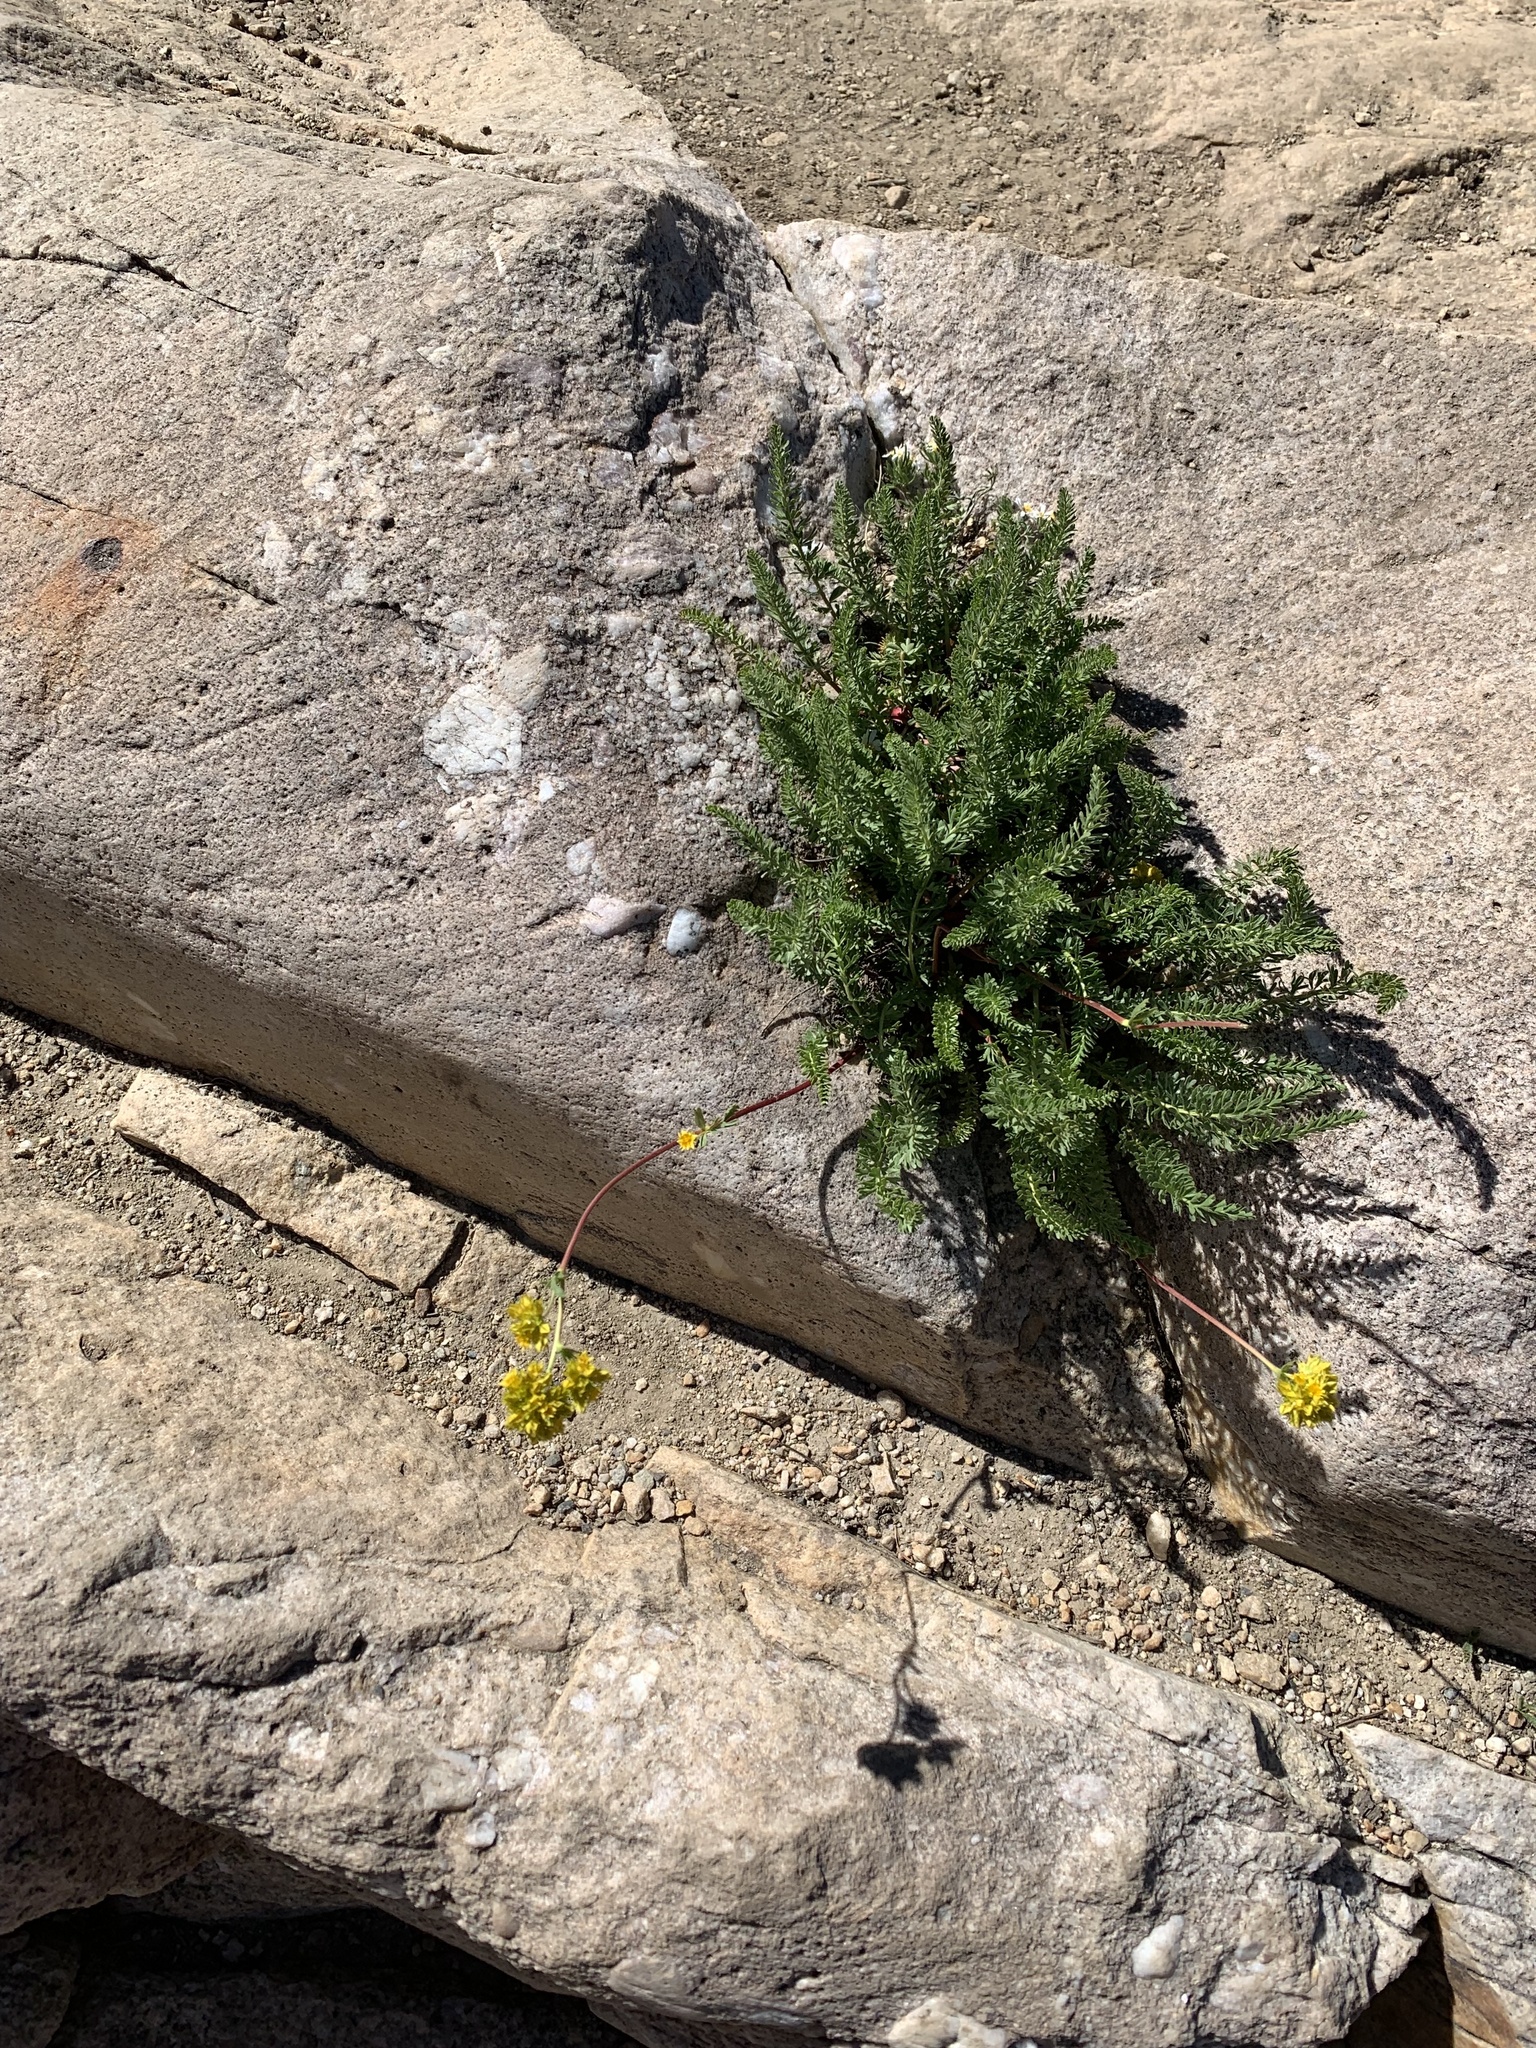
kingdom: Plantae
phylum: Tracheophyta
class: Magnoliopsida
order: Rosales
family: Rosaceae
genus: Potentilla
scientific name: Potentilla gordonii
